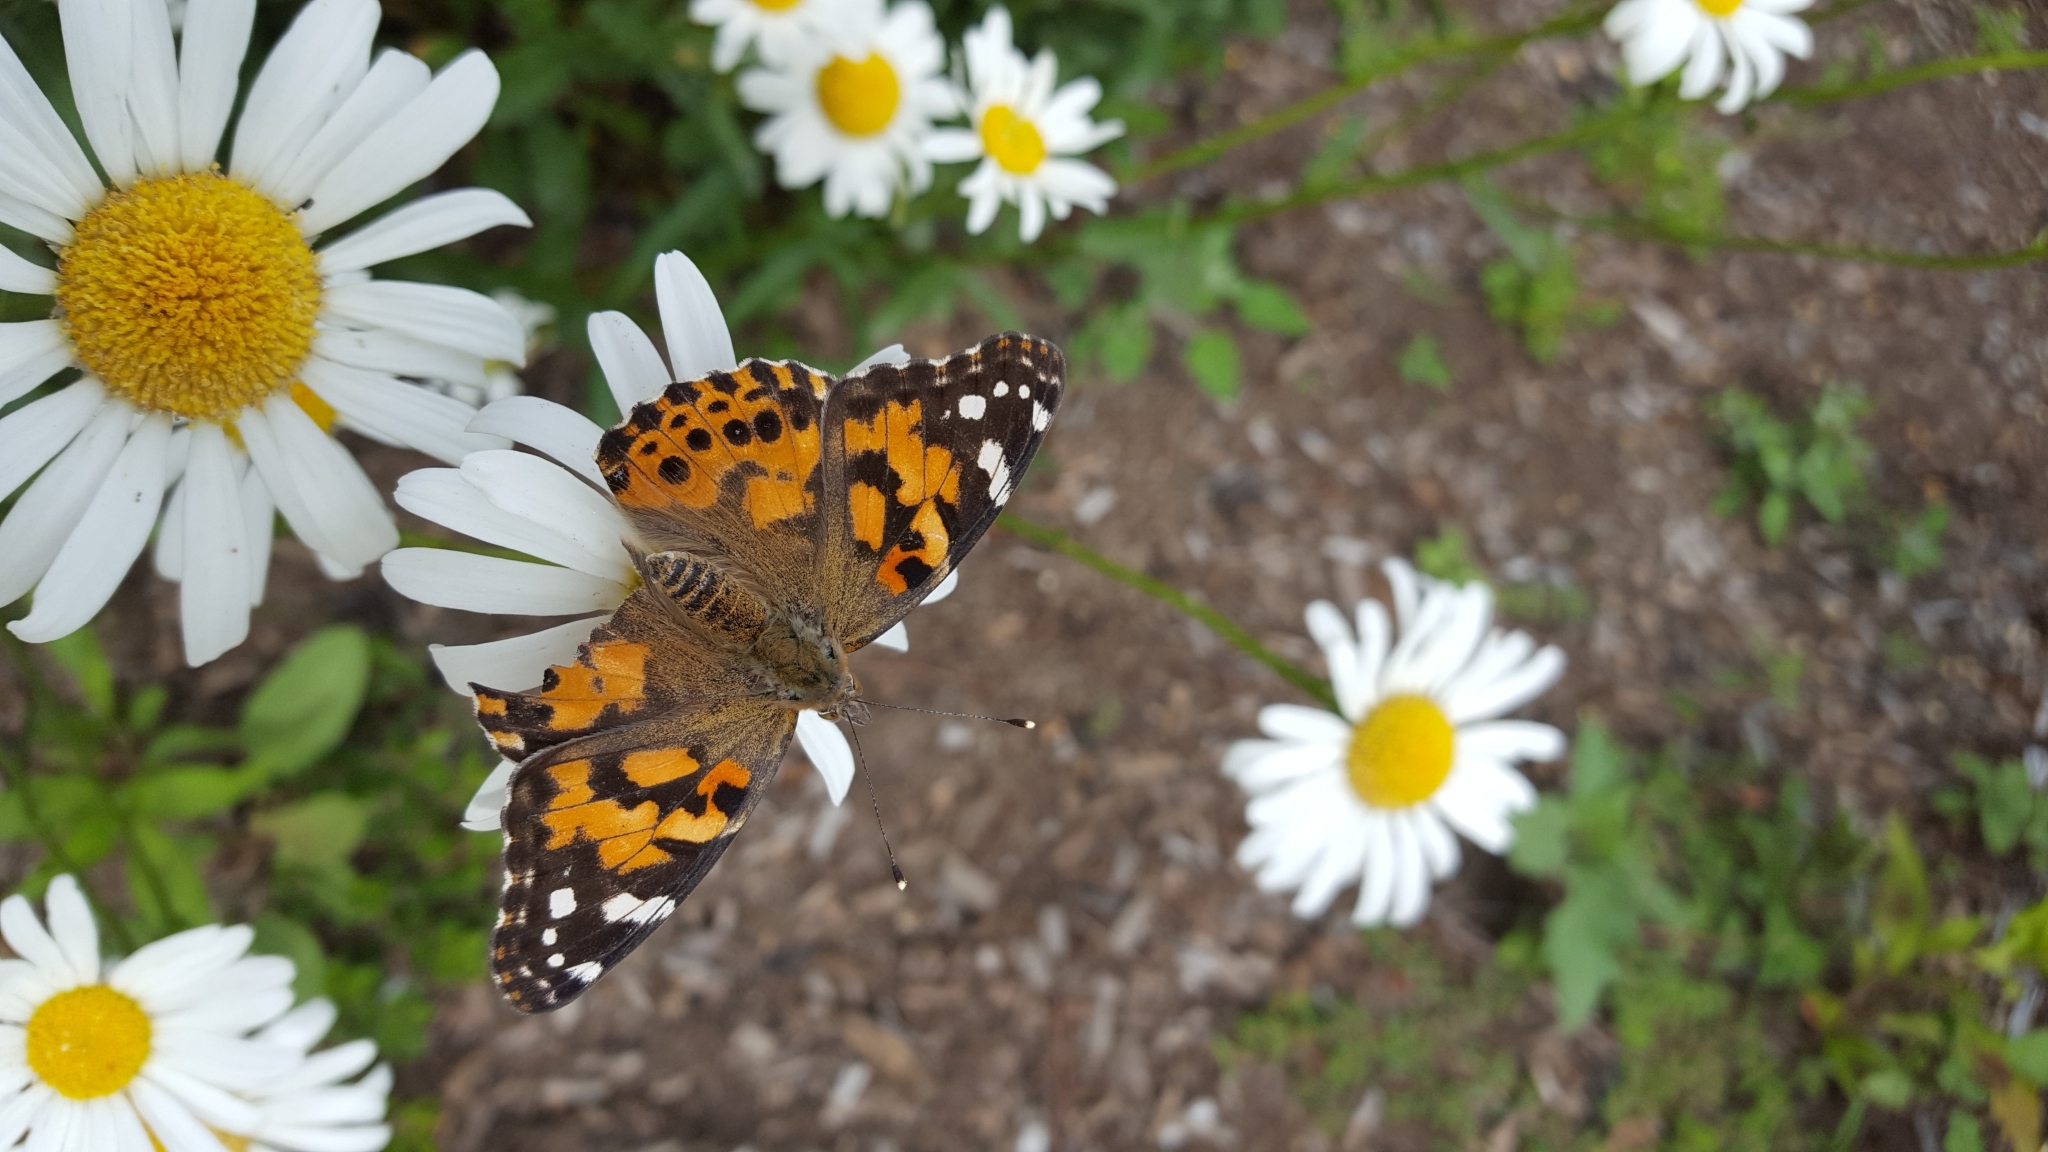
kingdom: Animalia
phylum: Arthropoda
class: Insecta
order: Lepidoptera
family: Nymphalidae
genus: Vanessa
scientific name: Vanessa cardui
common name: Painted lady
